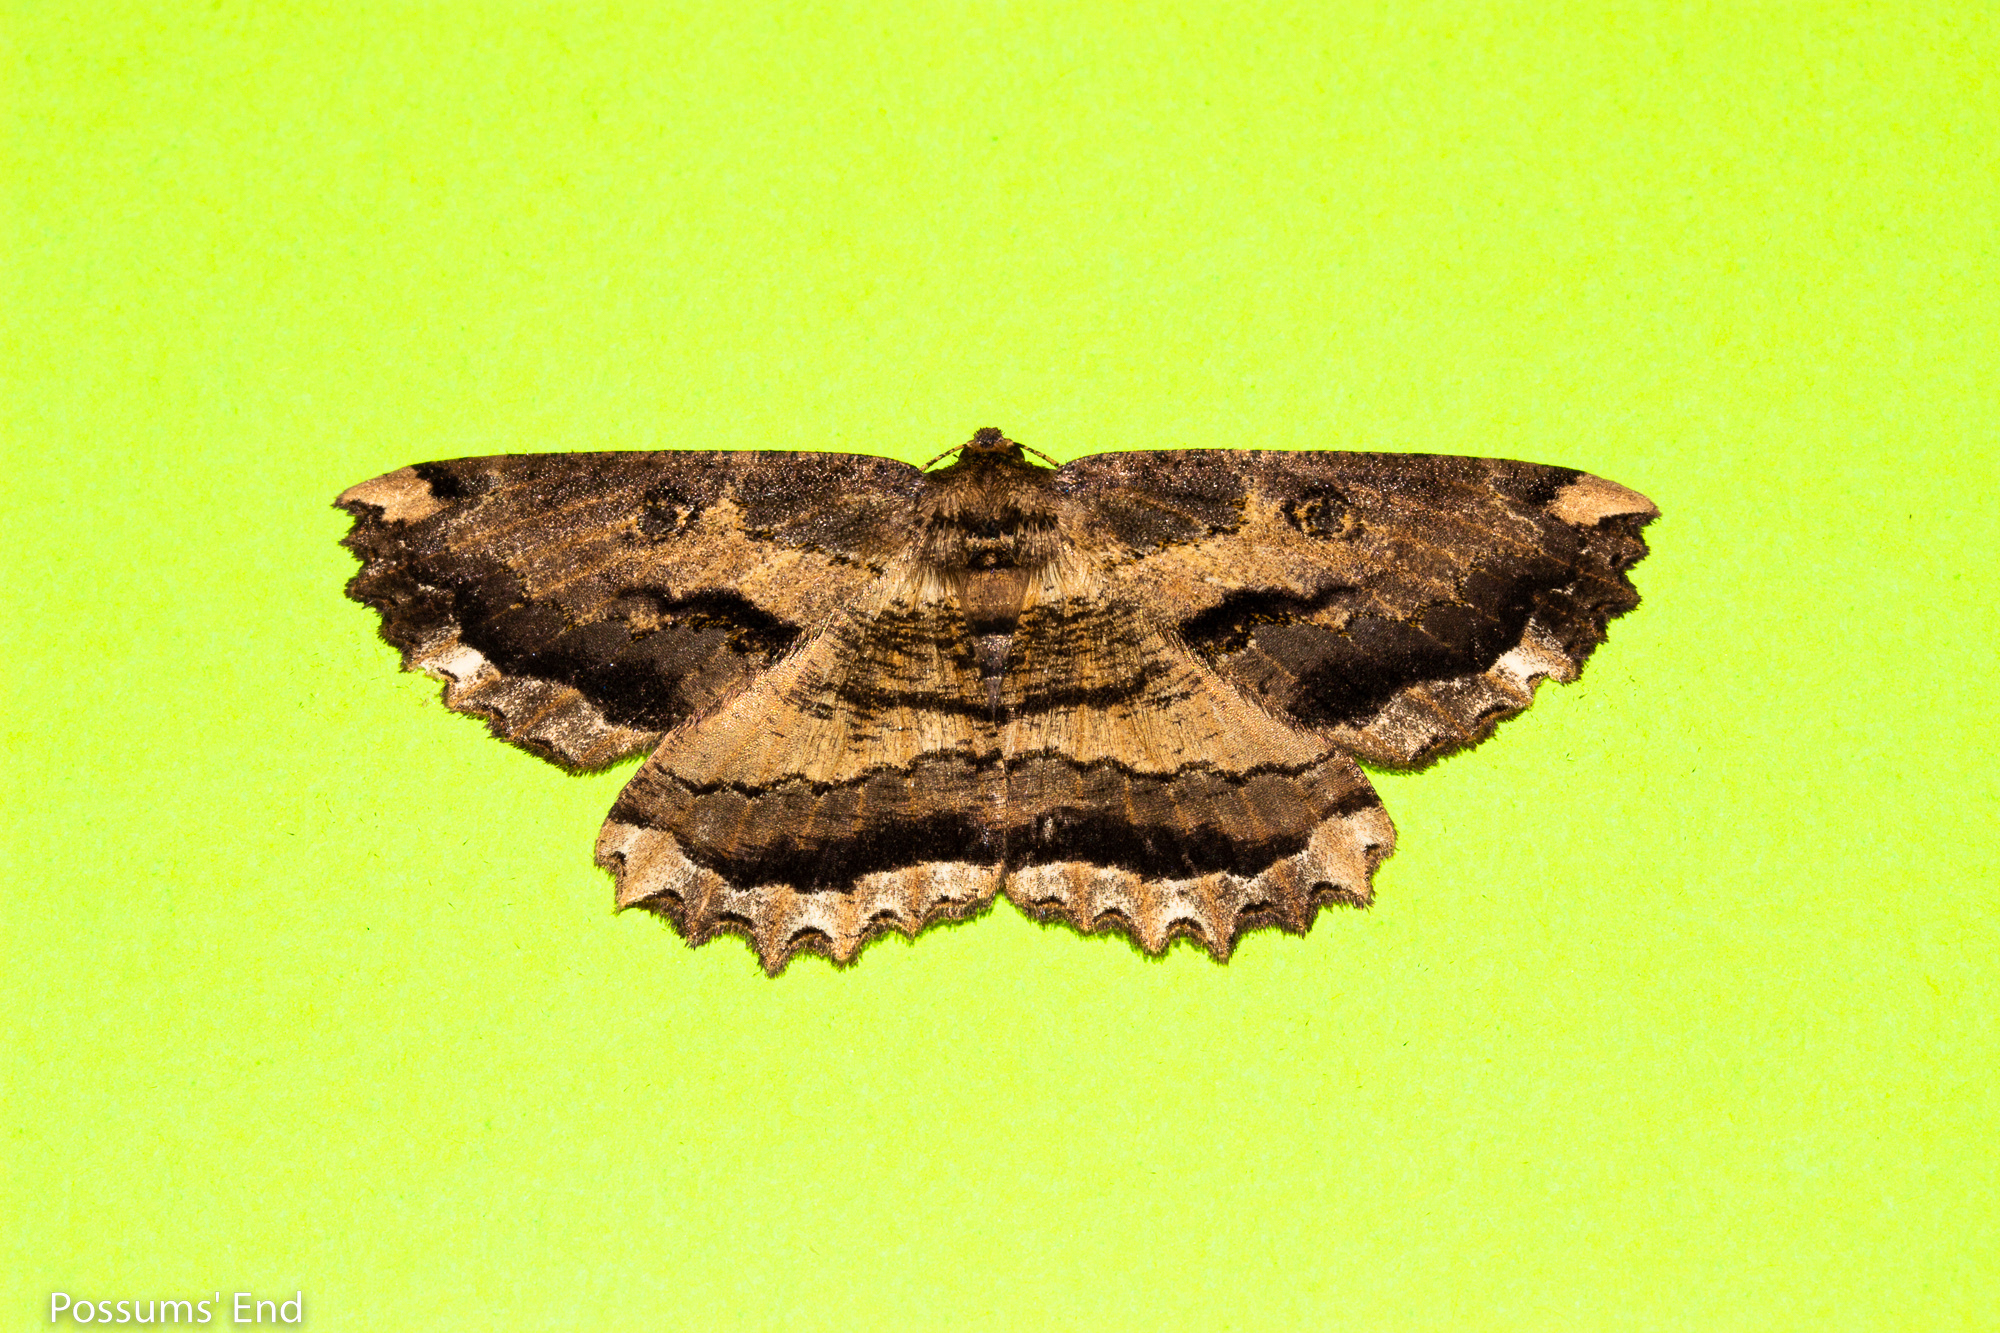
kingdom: Animalia
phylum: Arthropoda
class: Insecta
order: Lepidoptera
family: Geometridae
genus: Gellonia
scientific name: Gellonia dejectaria
